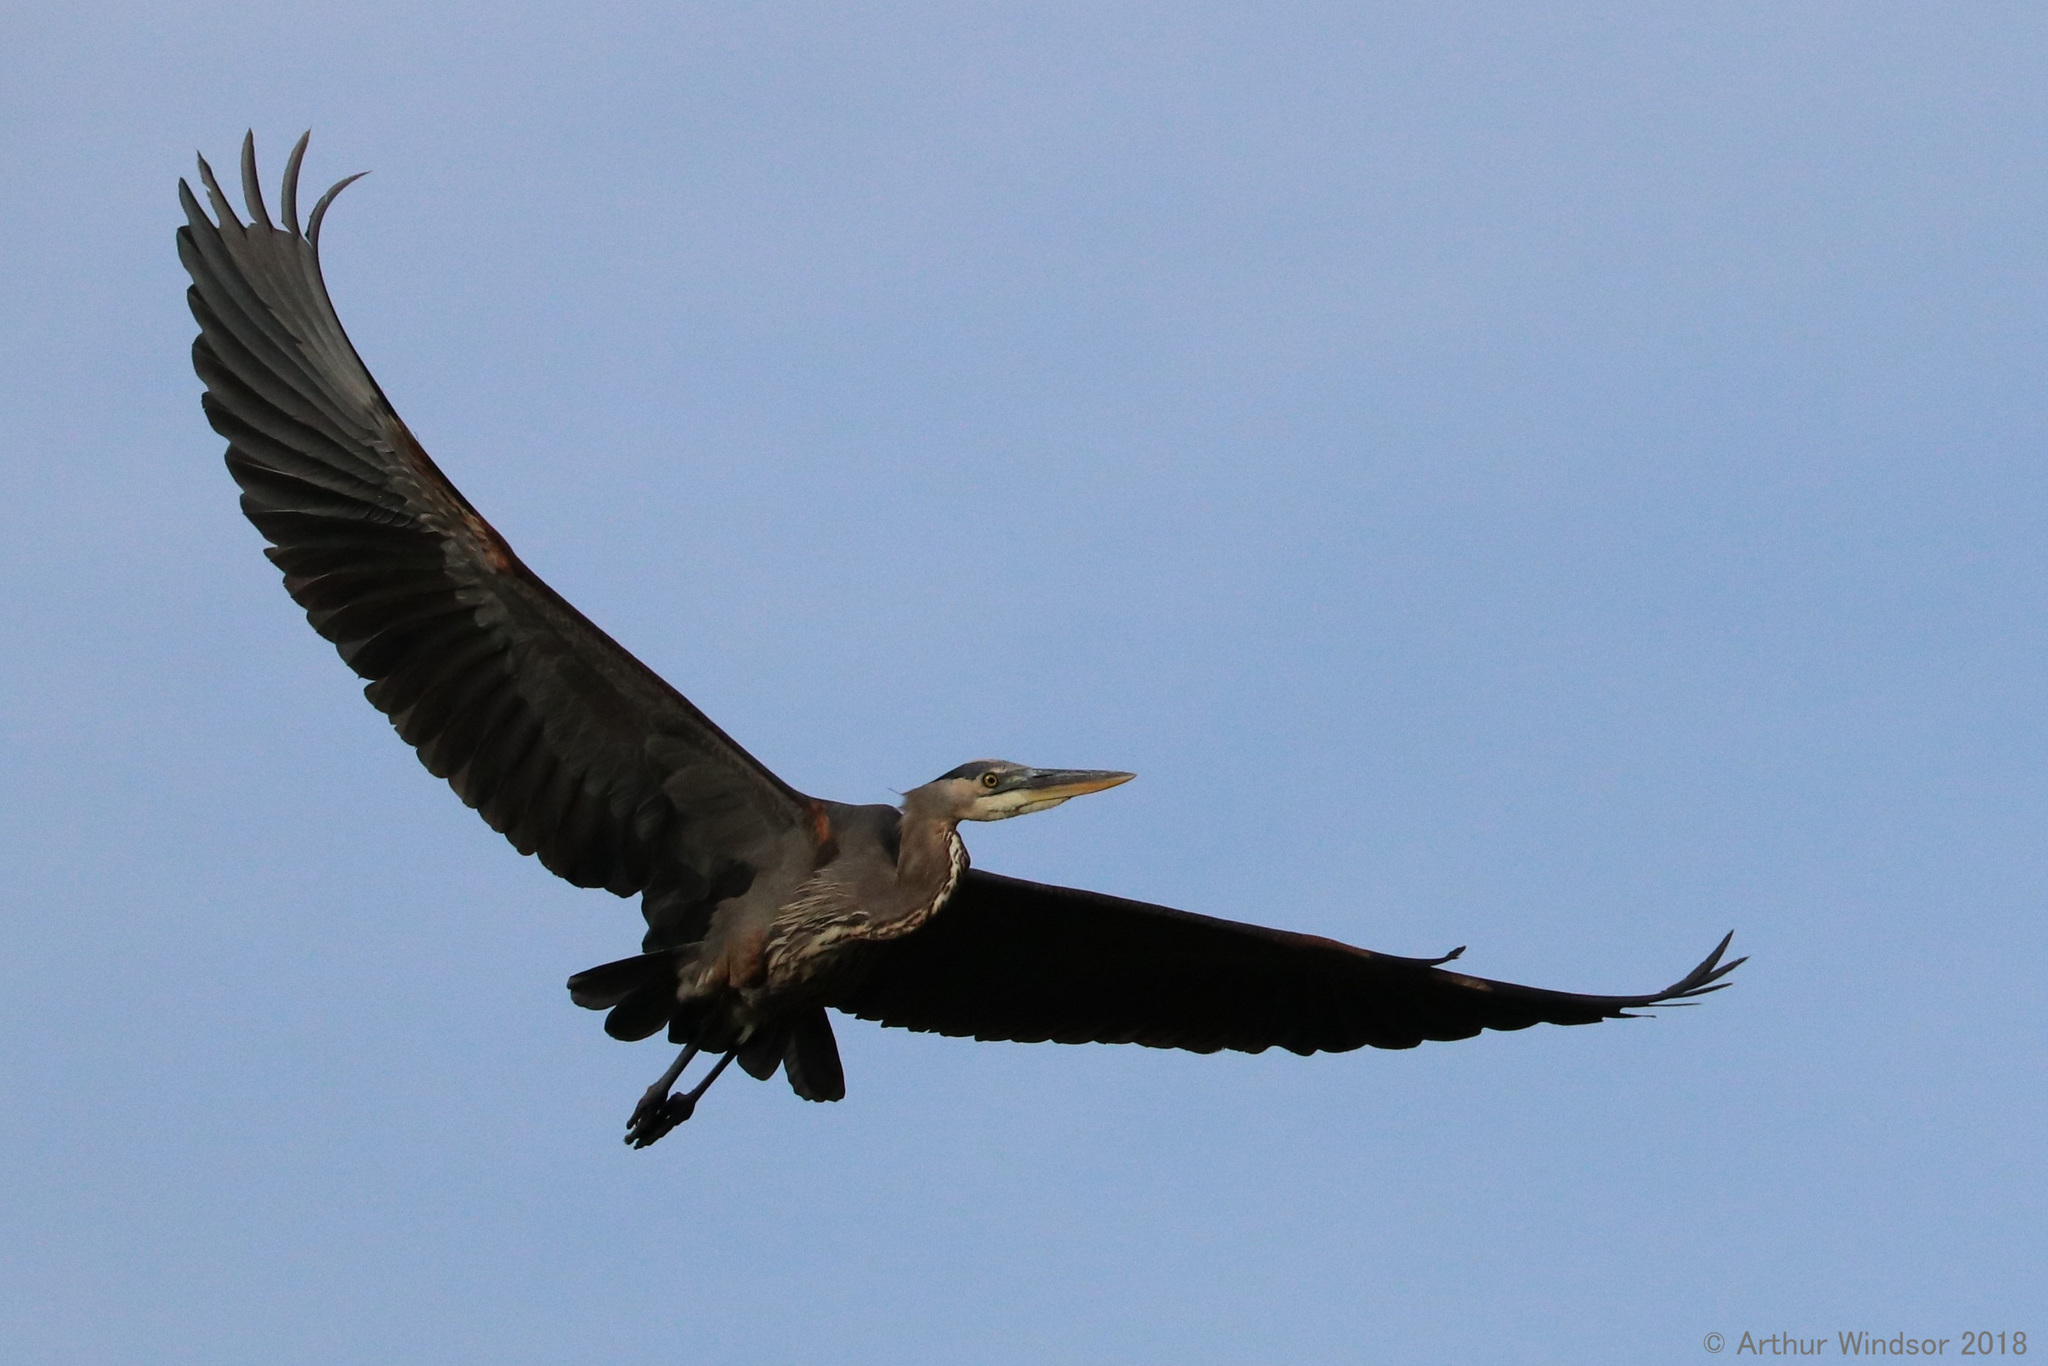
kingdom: Animalia
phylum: Chordata
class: Aves
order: Pelecaniformes
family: Ardeidae
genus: Ardea
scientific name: Ardea herodias
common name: Great blue heron
